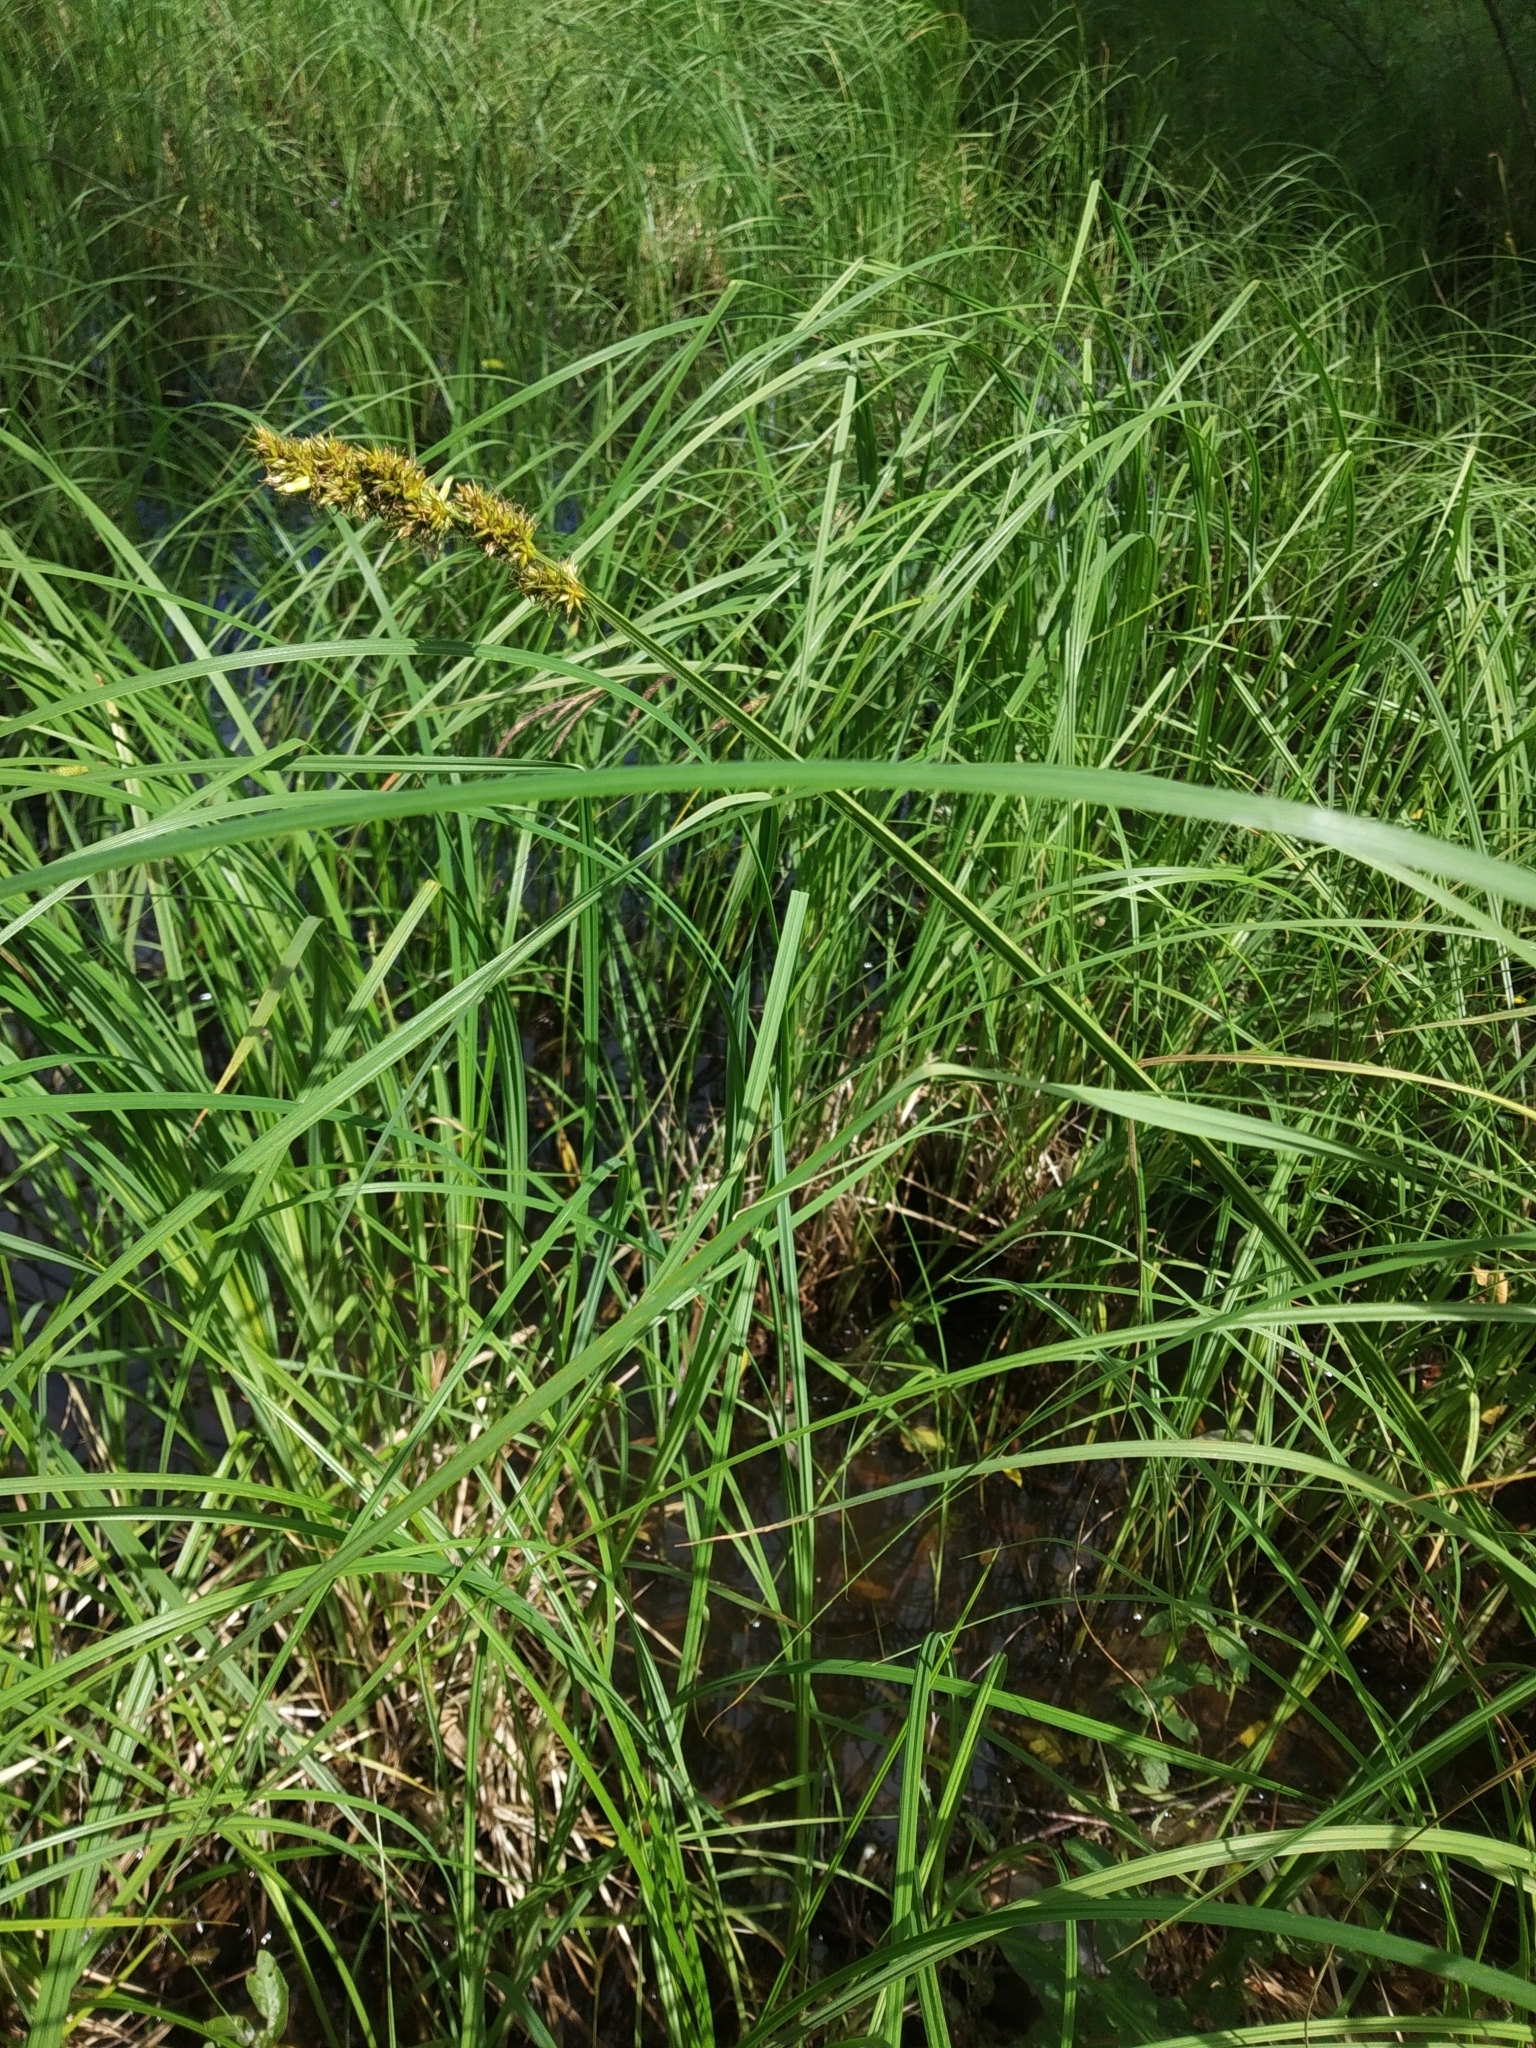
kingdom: Plantae
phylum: Tracheophyta
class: Liliopsida
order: Poales
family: Cyperaceae
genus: Carex
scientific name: Carex vulpina
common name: True fox-sedge
